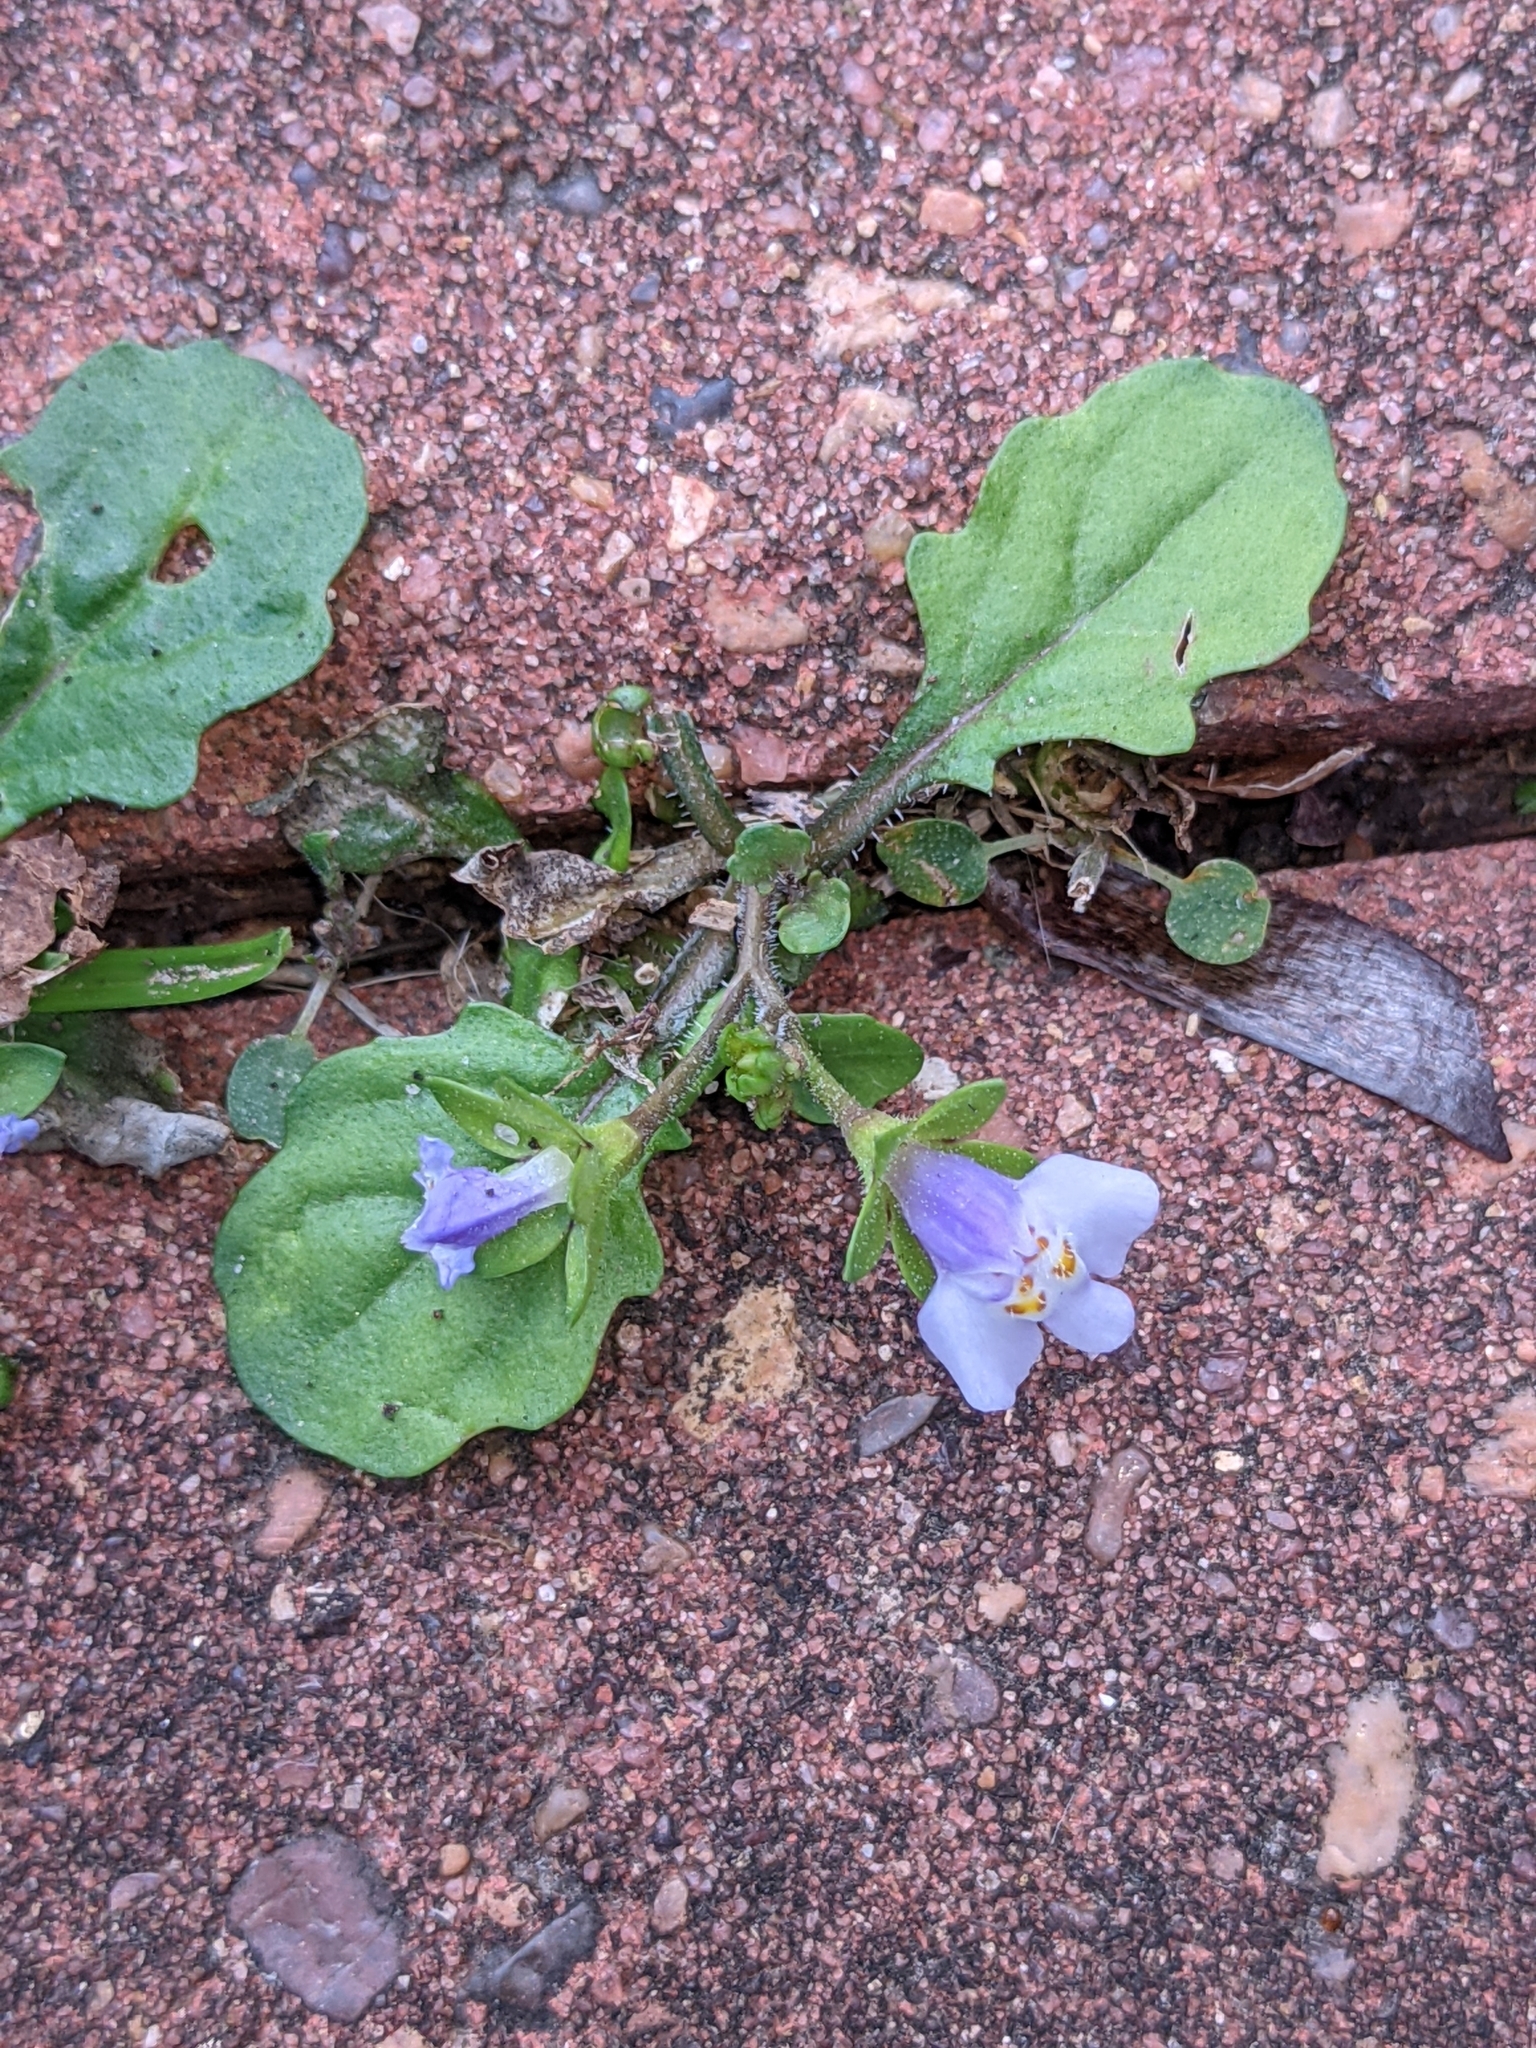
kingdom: Plantae
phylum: Tracheophyta
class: Magnoliopsida
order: Lamiales
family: Mazaceae
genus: Mazus
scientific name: Mazus pumilus
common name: Japanese mazus
